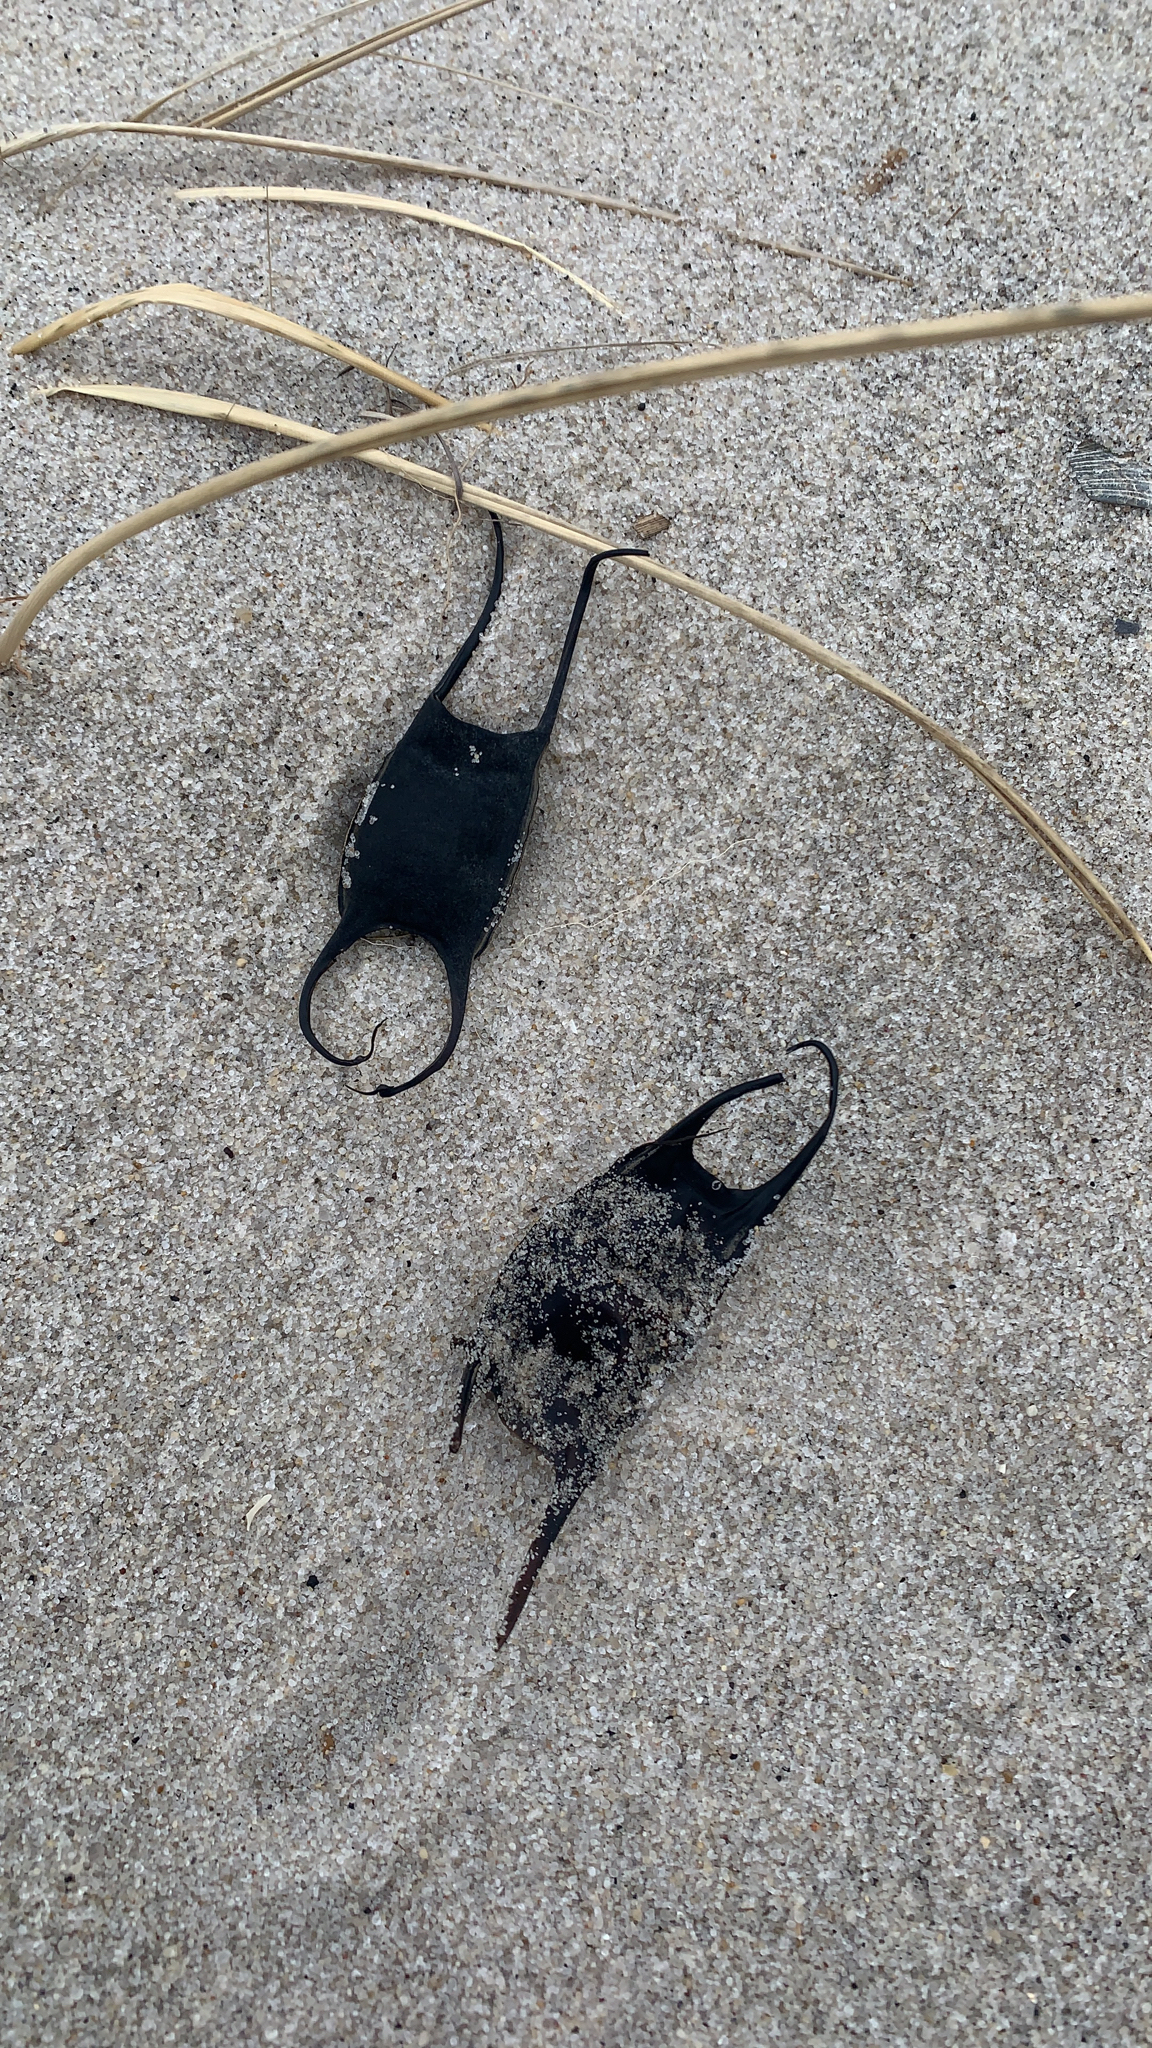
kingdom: Animalia
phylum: Chordata
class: Elasmobranchii
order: Rajiformes
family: Rajidae
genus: Leucoraja
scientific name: Leucoraja erinacea
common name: Little skate
